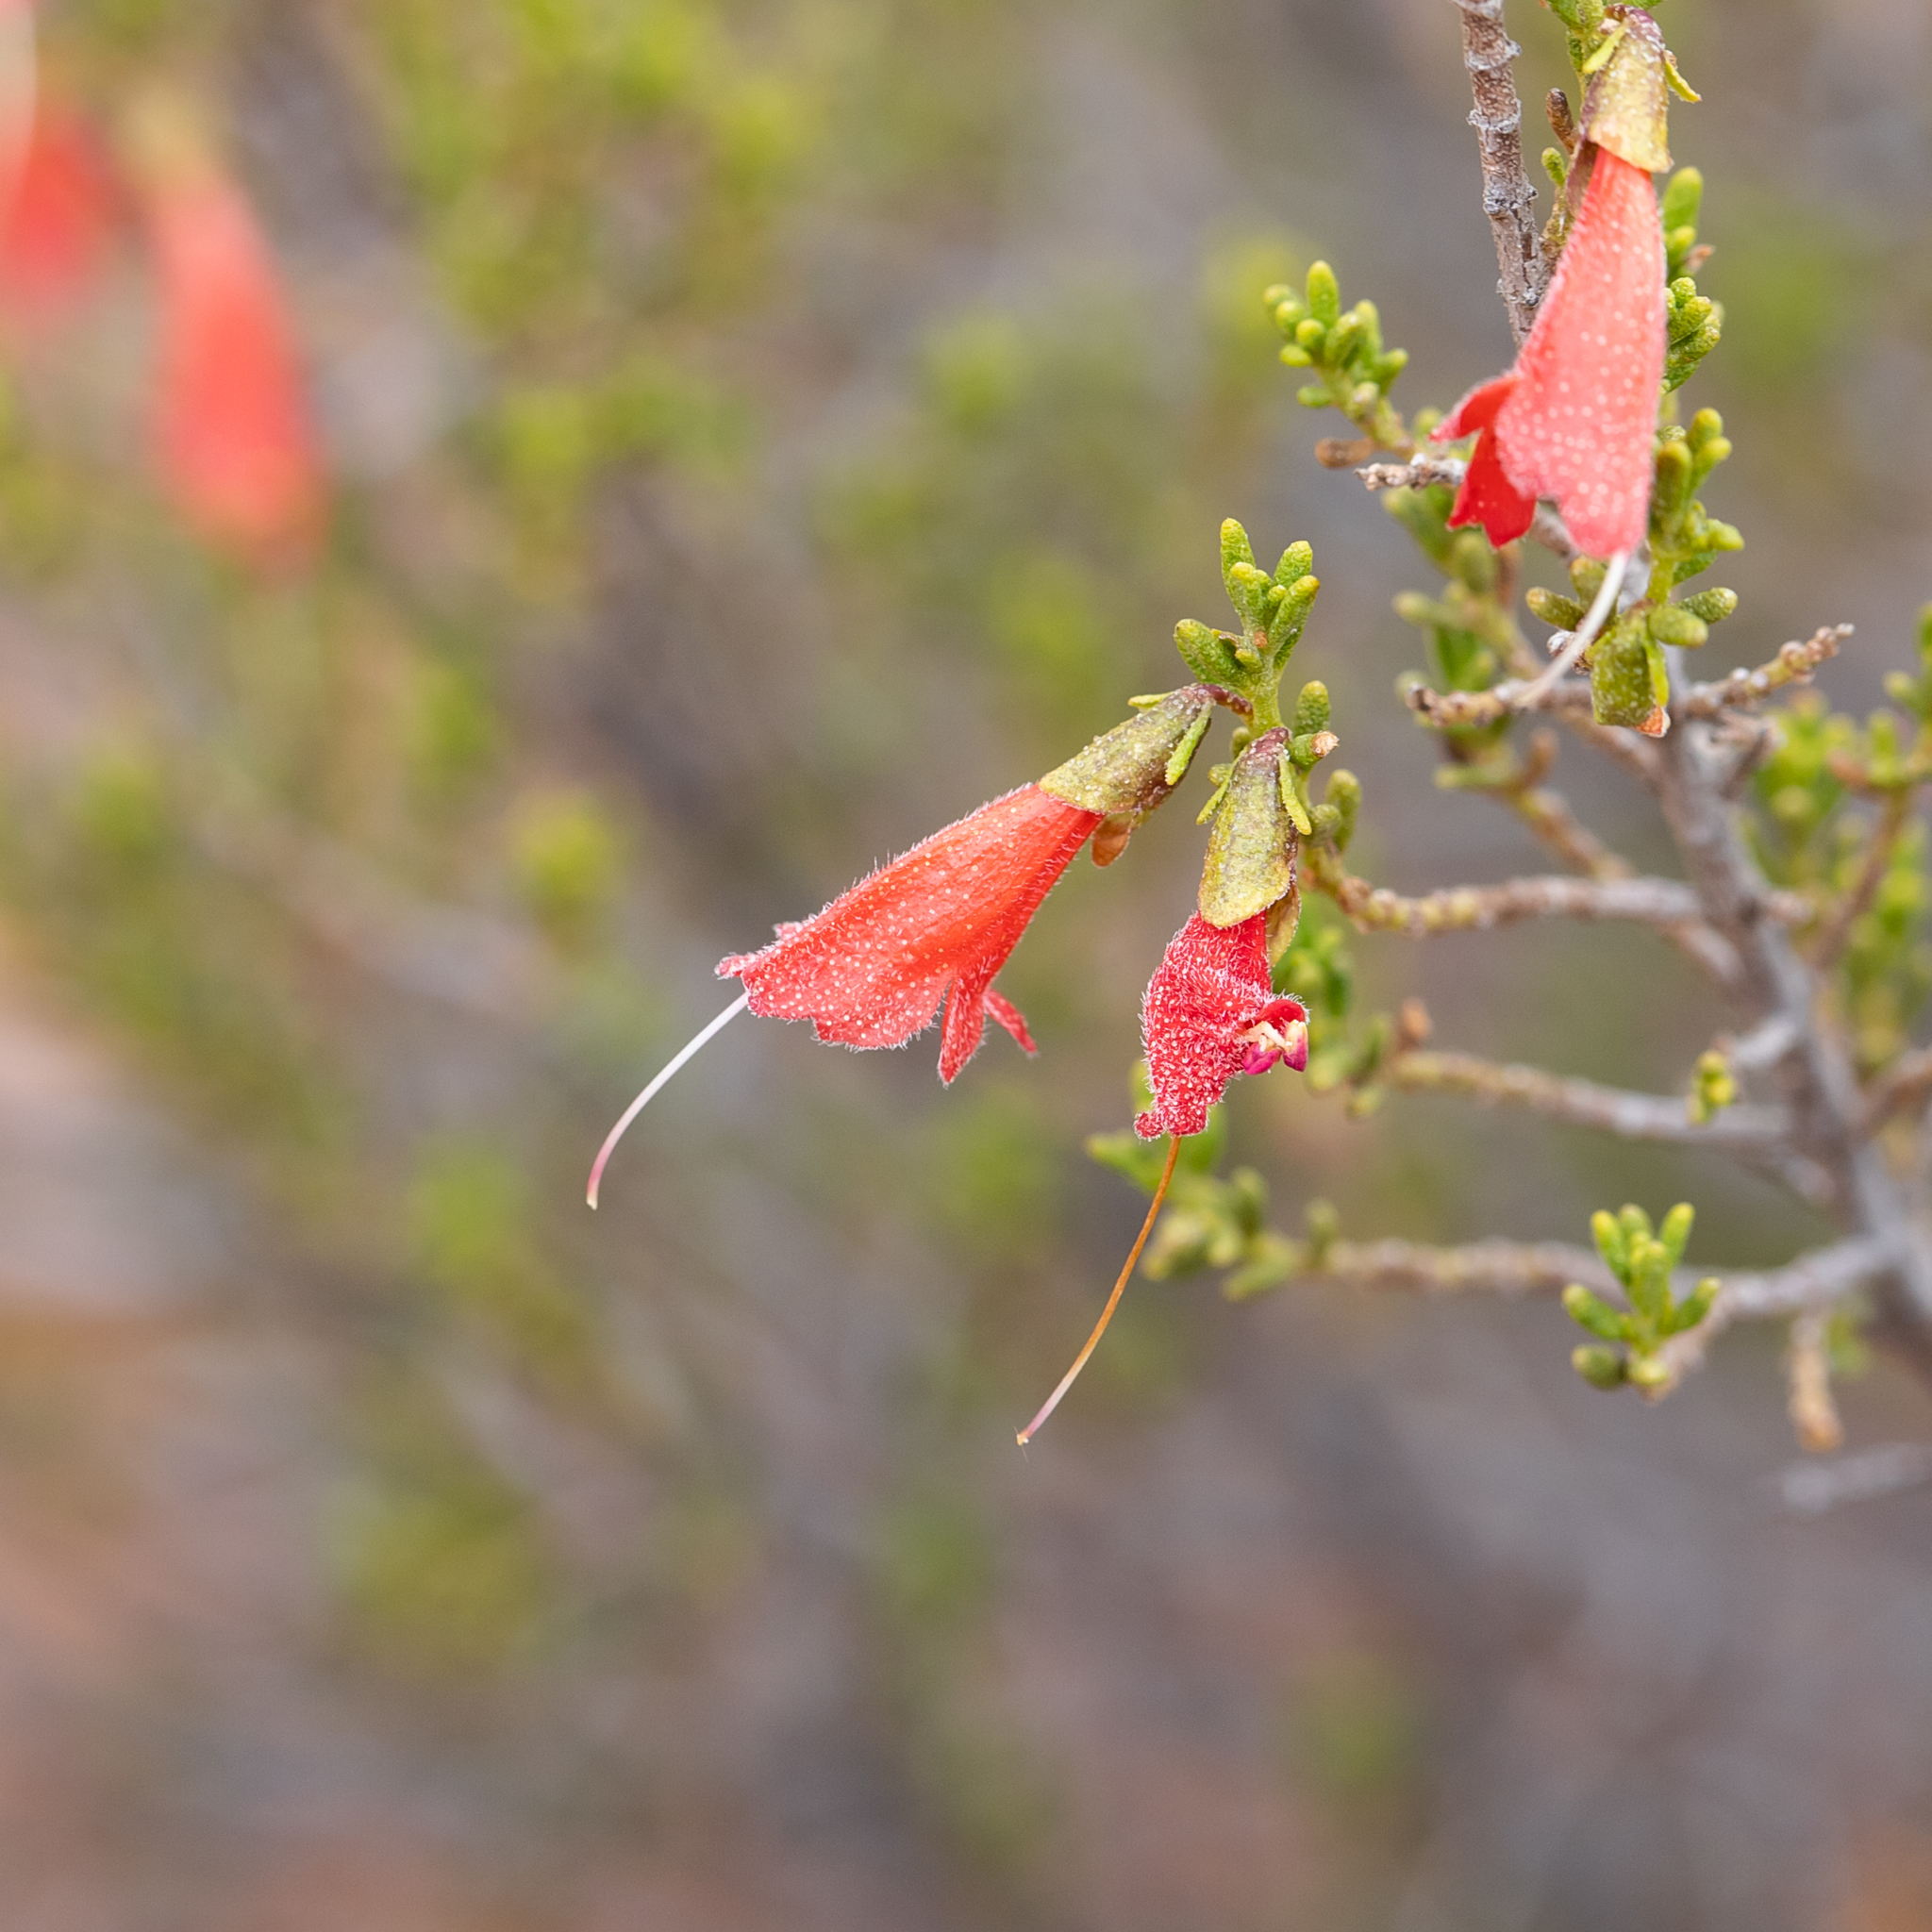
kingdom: Plantae
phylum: Tracheophyta
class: Magnoliopsida
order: Lamiales
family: Lamiaceae
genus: Prostanthera
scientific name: Prostanthera aspalathoides
